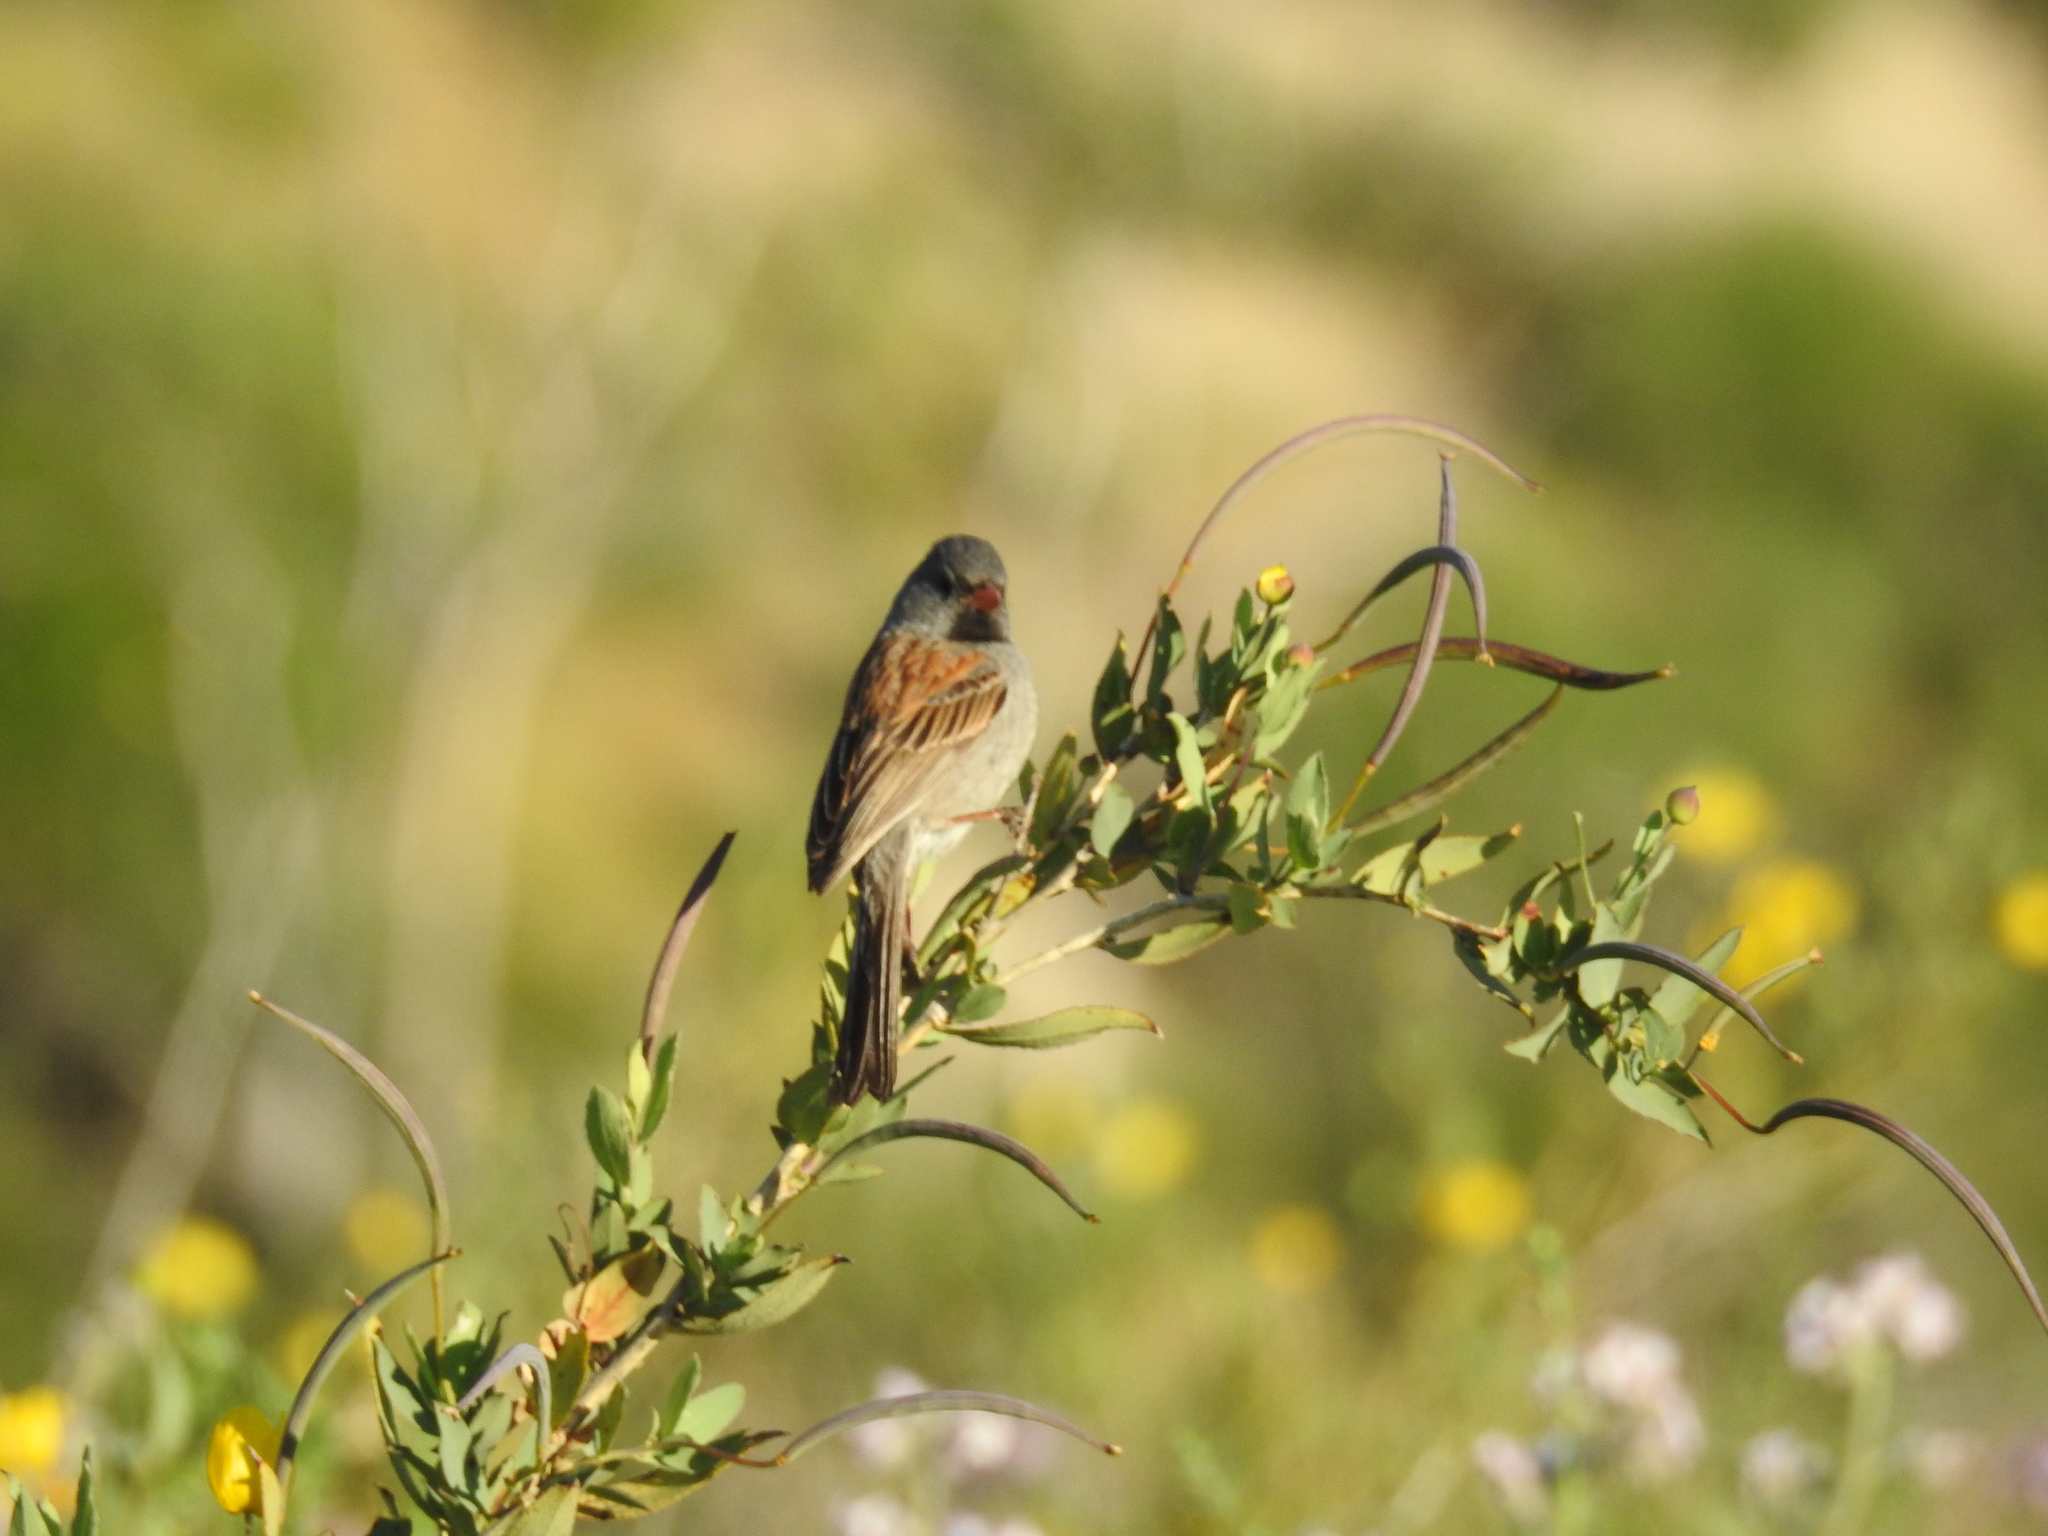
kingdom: Animalia
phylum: Chordata
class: Aves
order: Passeriformes
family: Passerellidae
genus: Spizella
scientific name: Spizella atrogularis
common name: Black-chinned sparrow
